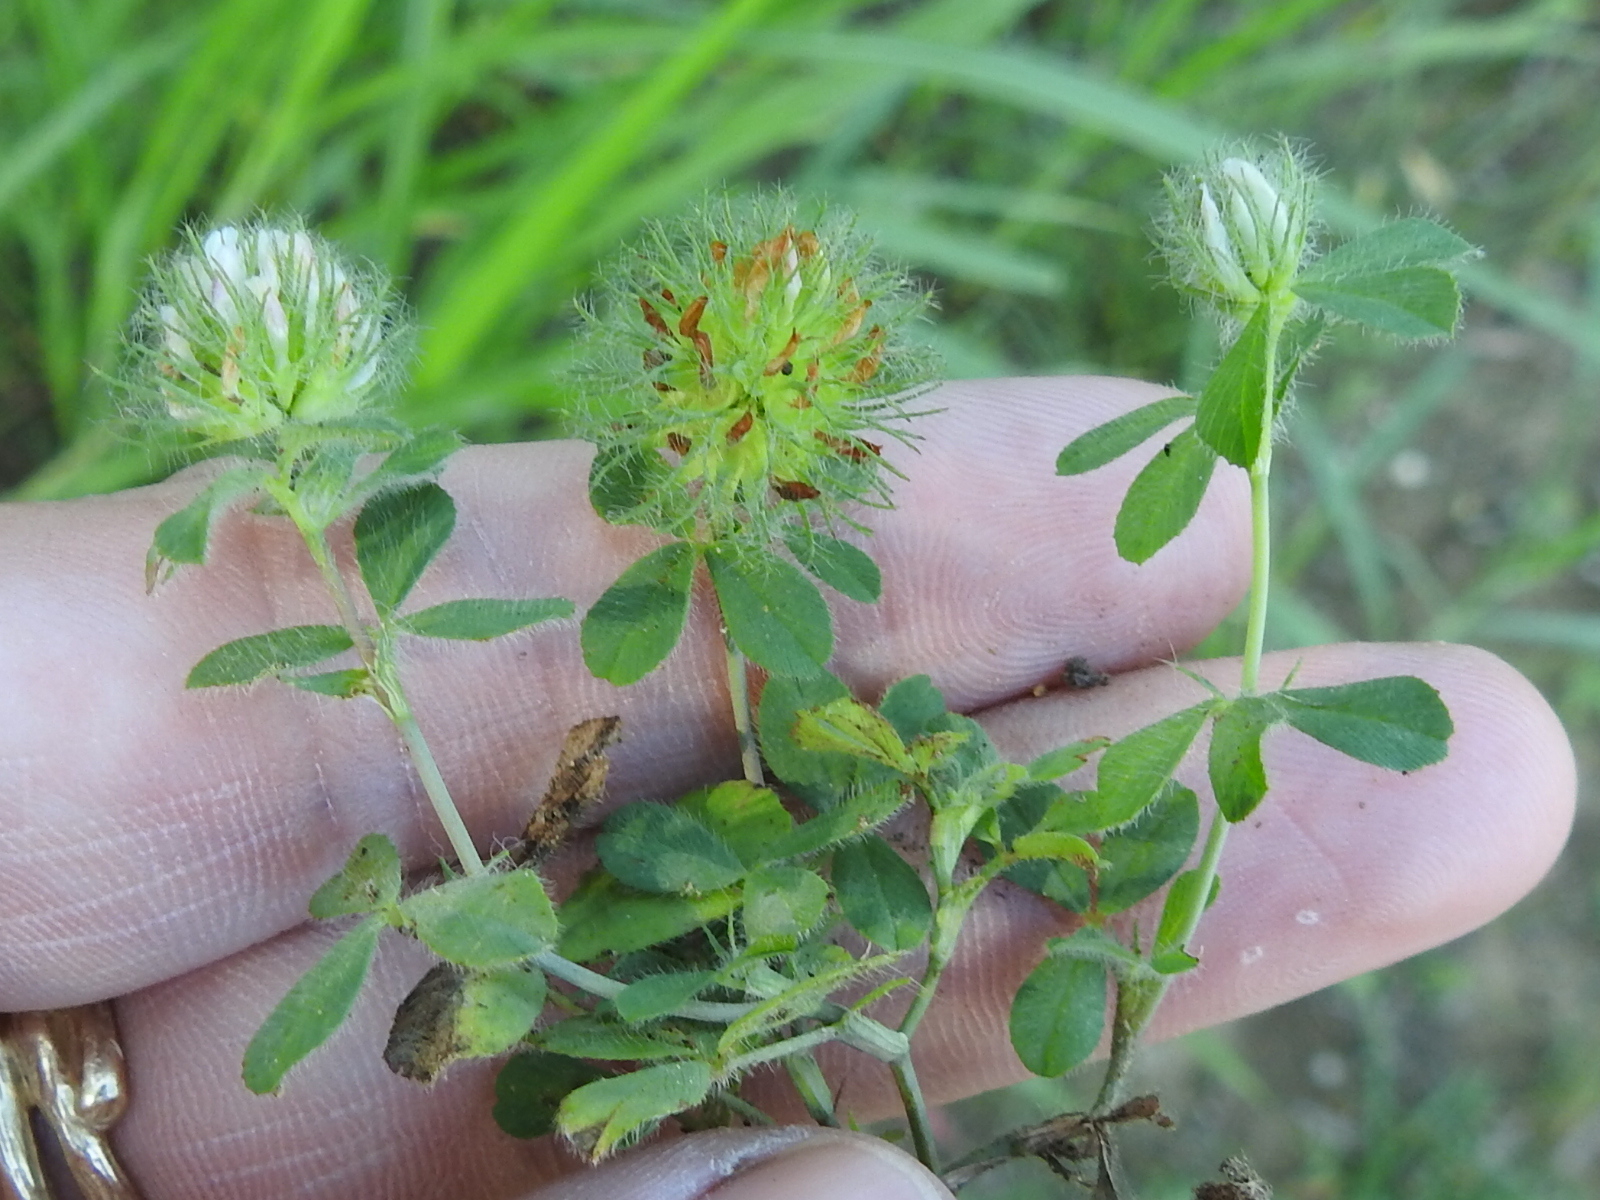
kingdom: Plantae
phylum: Tracheophyta
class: Magnoliopsida
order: Fabales
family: Fabaceae
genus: Trifolium
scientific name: Trifolium lappaceum
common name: Bur clover
